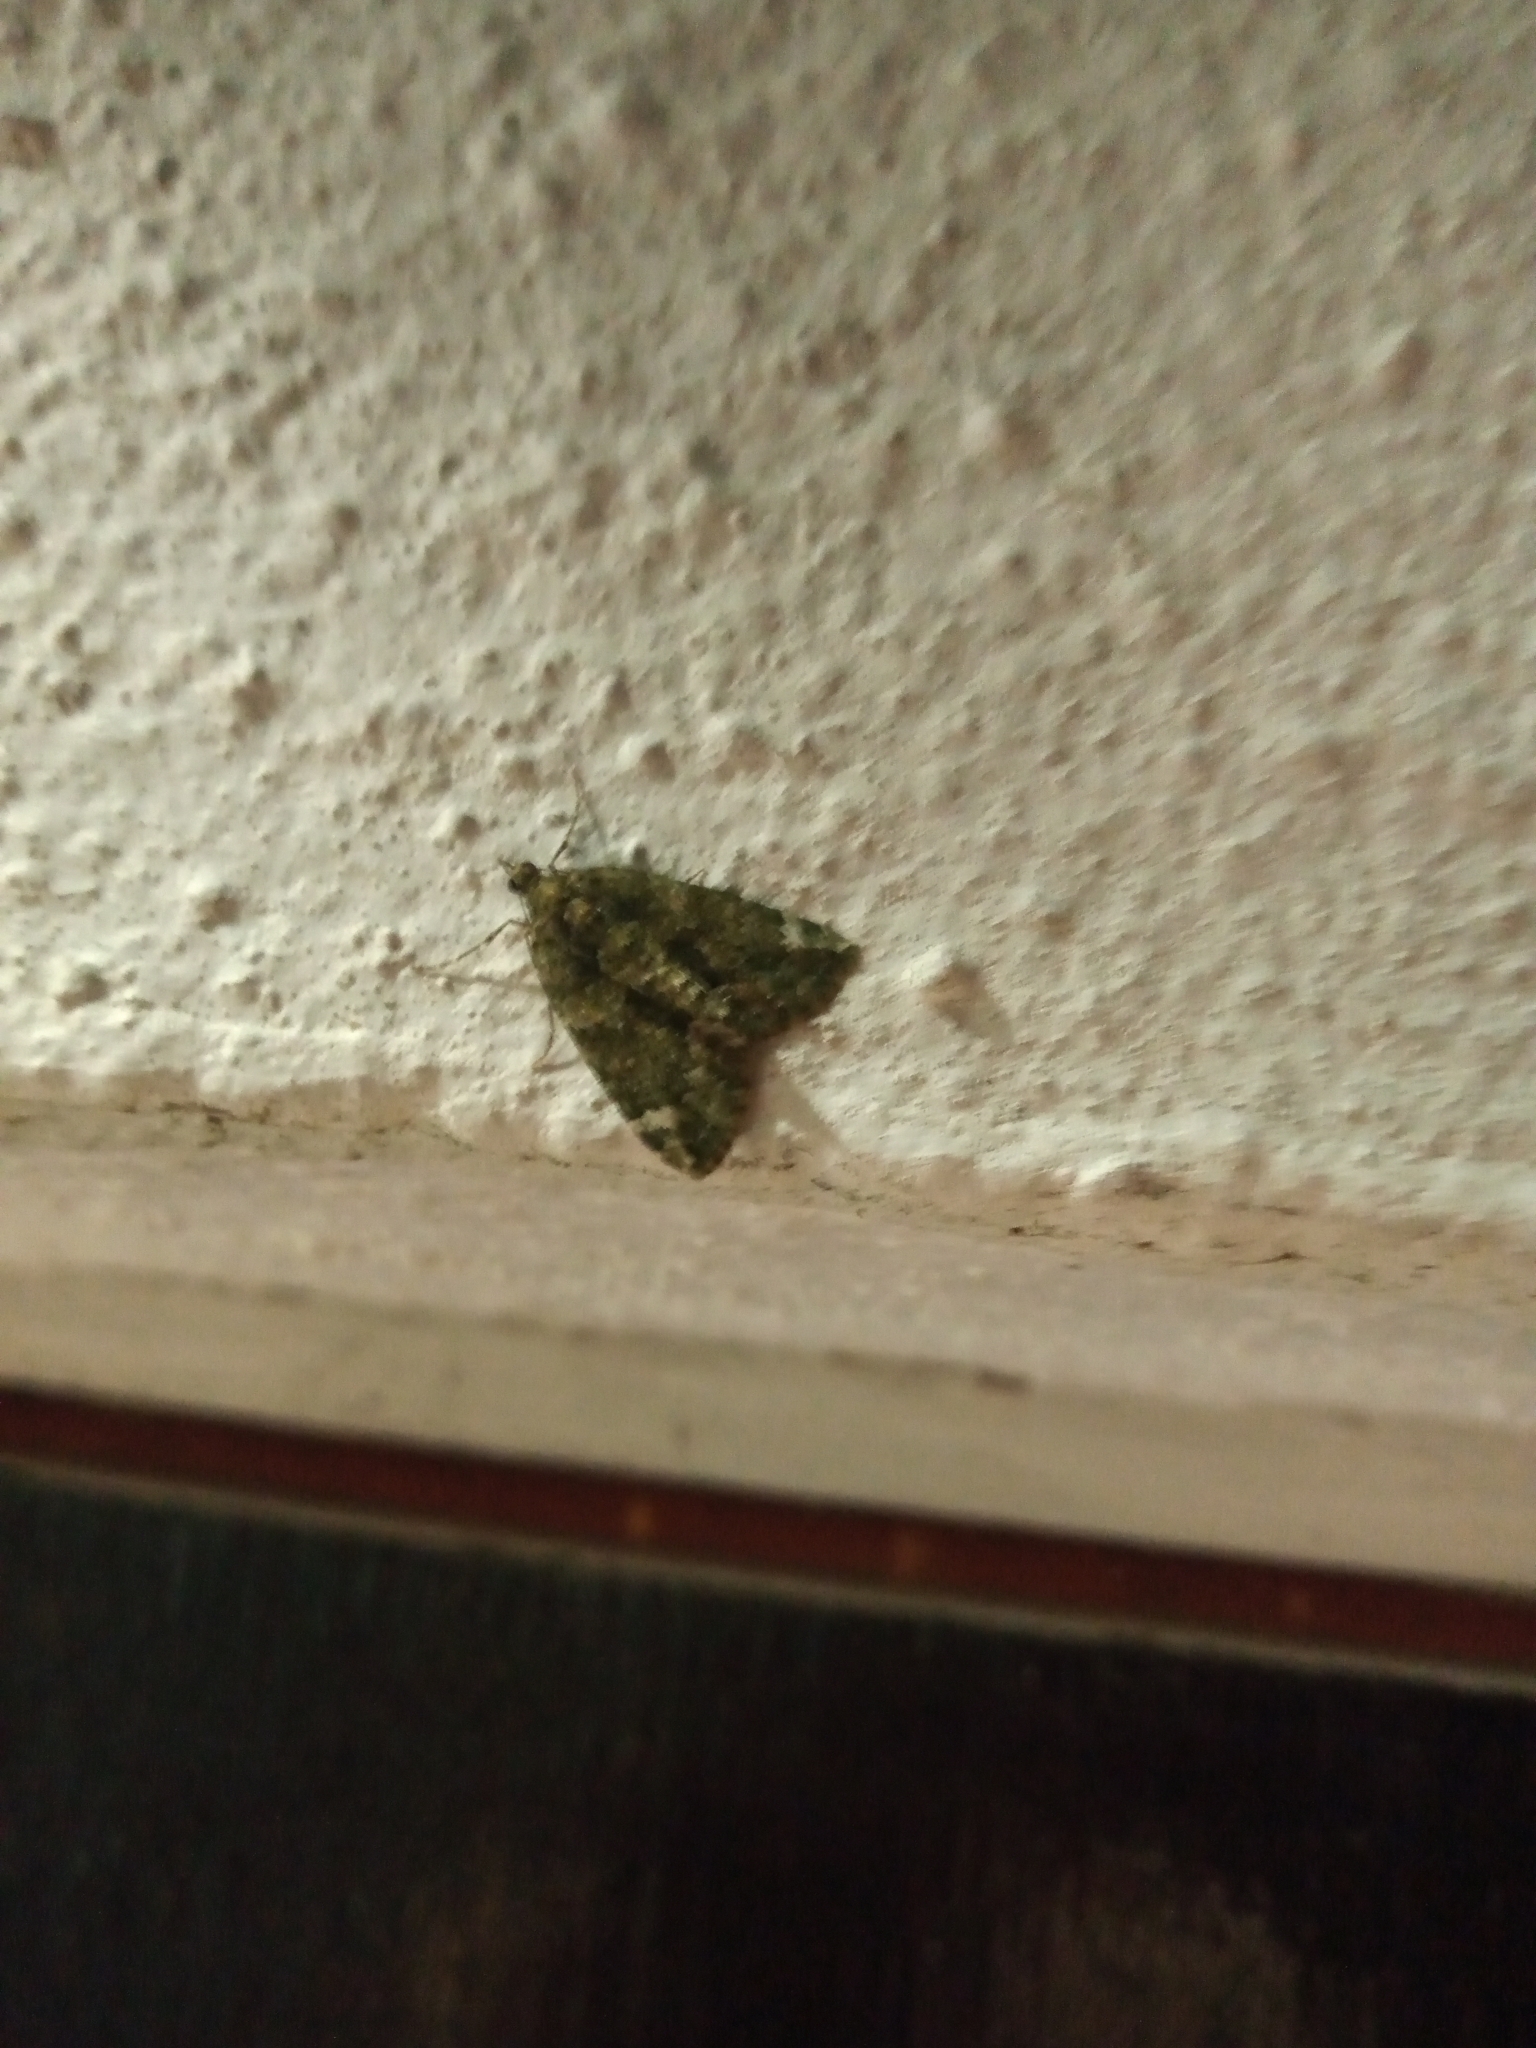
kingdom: Animalia
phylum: Arthropoda
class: Insecta
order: Lepidoptera
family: Geometridae
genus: Chloroclysta
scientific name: Chloroclysta siterata
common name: Red-green carpet
